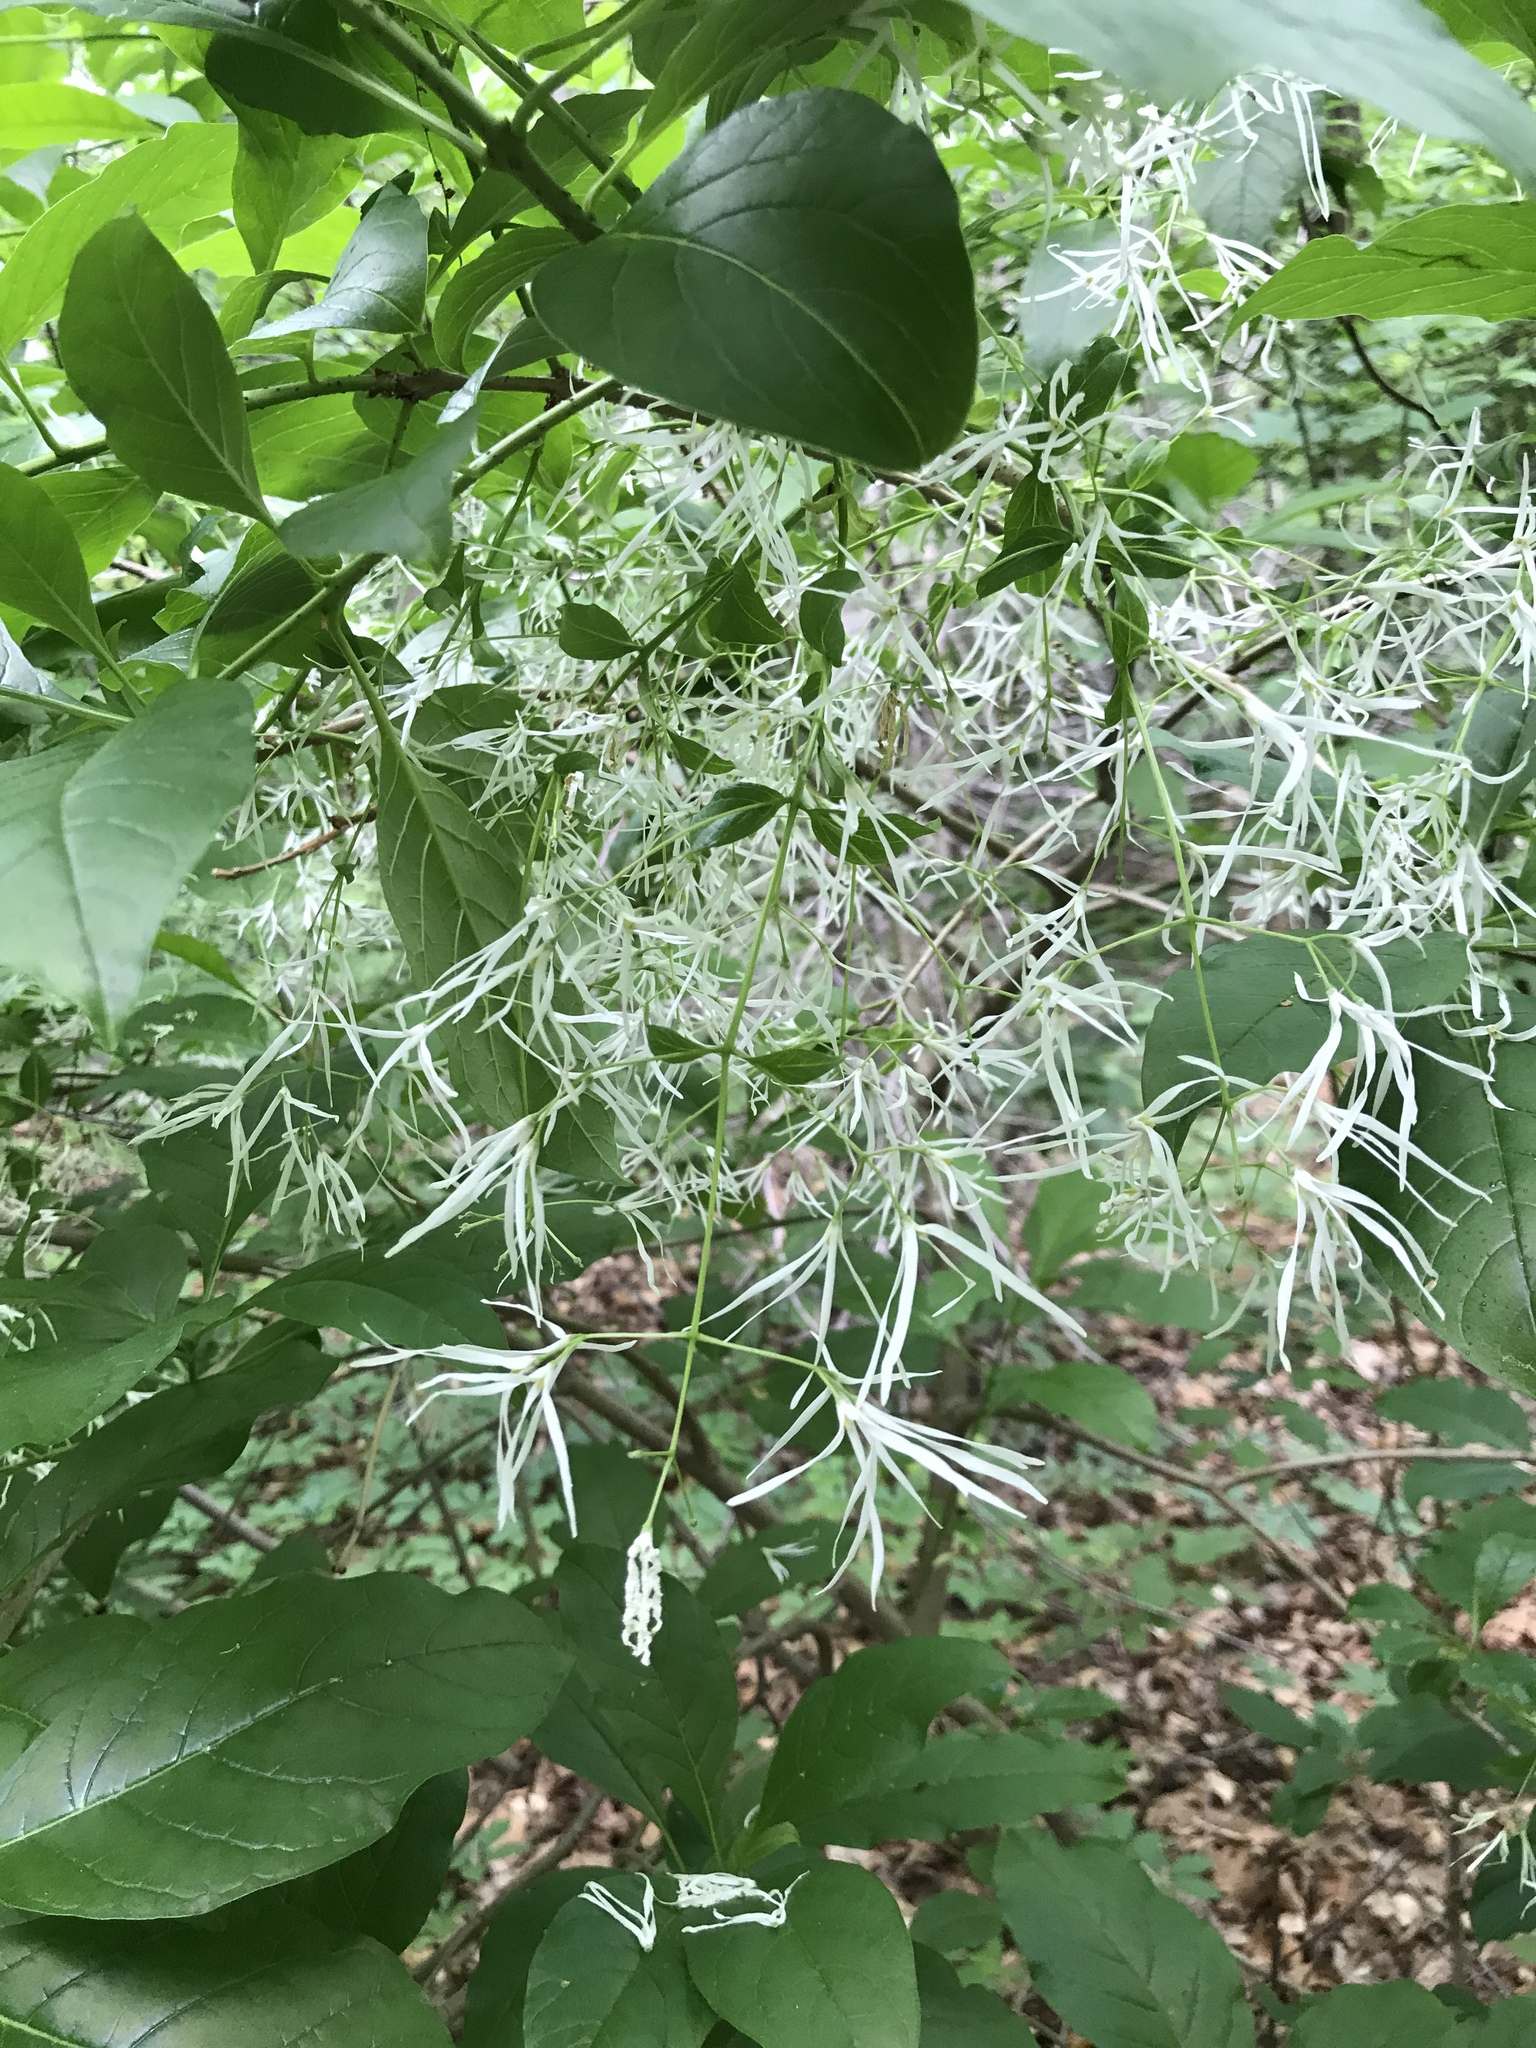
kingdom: Plantae
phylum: Tracheophyta
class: Magnoliopsida
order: Lamiales
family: Oleaceae
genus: Chionanthus
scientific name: Chionanthus virginicus
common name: American fringetree
